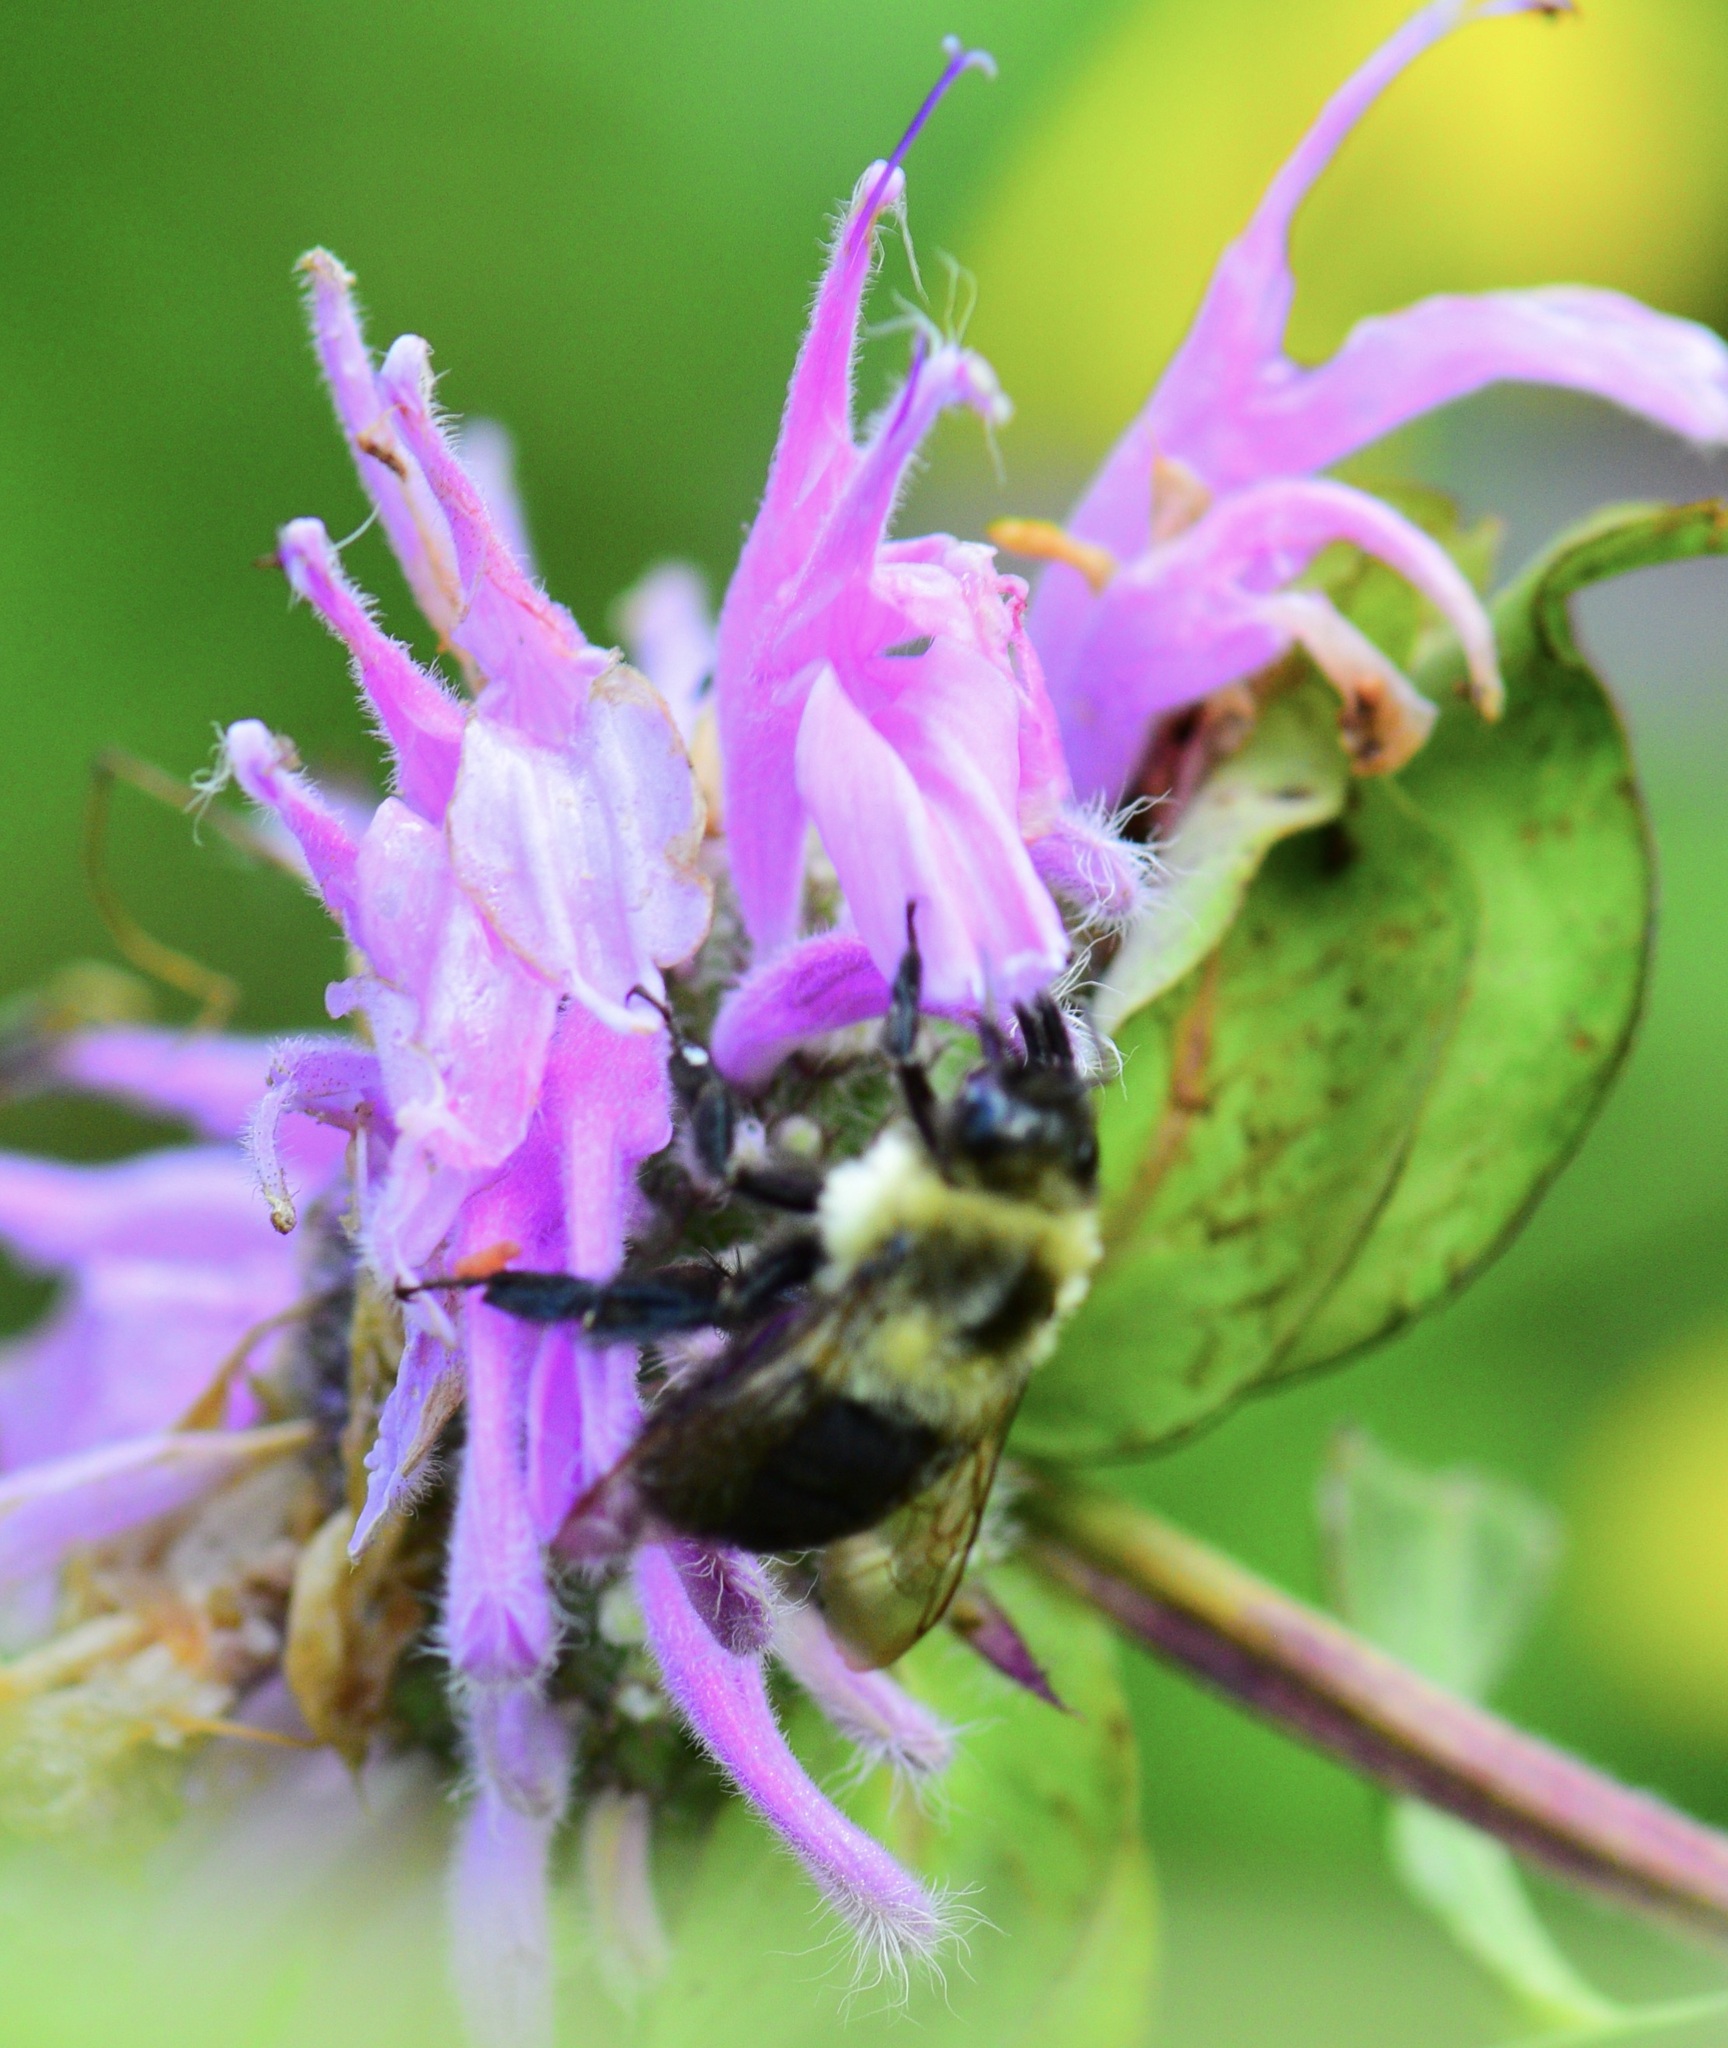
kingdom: Animalia
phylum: Arthropoda
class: Insecta
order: Hymenoptera
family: Apidae
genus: Bombus
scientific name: Bombus impatiens
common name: Common eastern bumble bee
